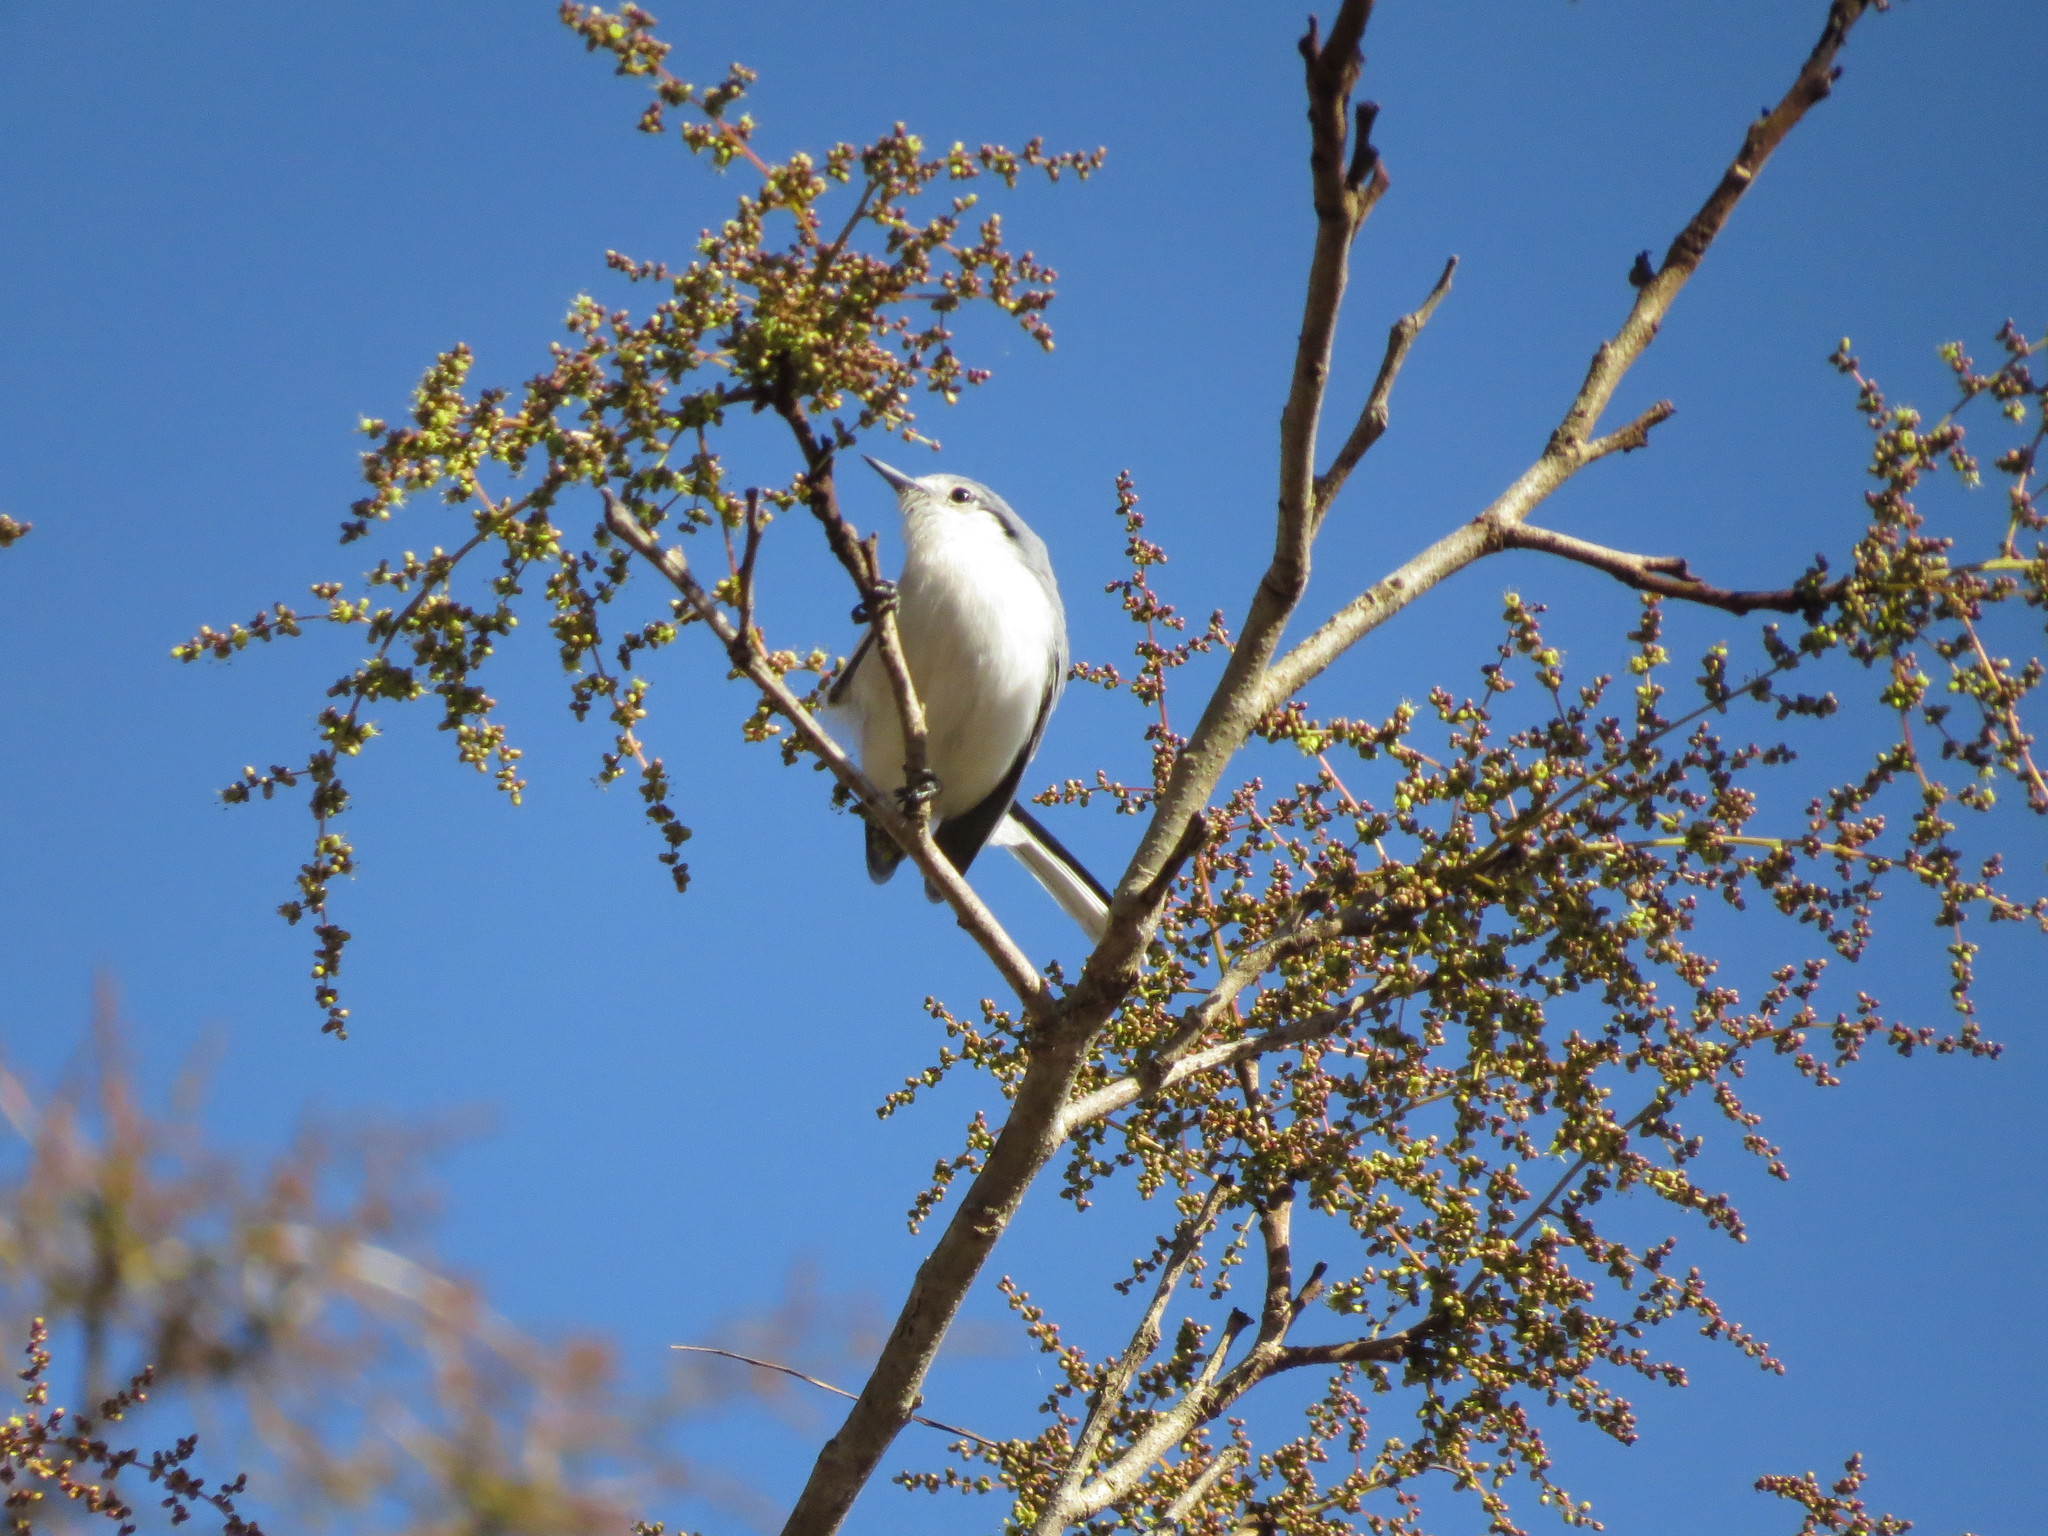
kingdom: Animalia
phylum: Chordata
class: Aves
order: Passeriformes
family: Polioptilidae
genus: Polioptila
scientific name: Polioptila dumicola
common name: Masked gnatcatcher
